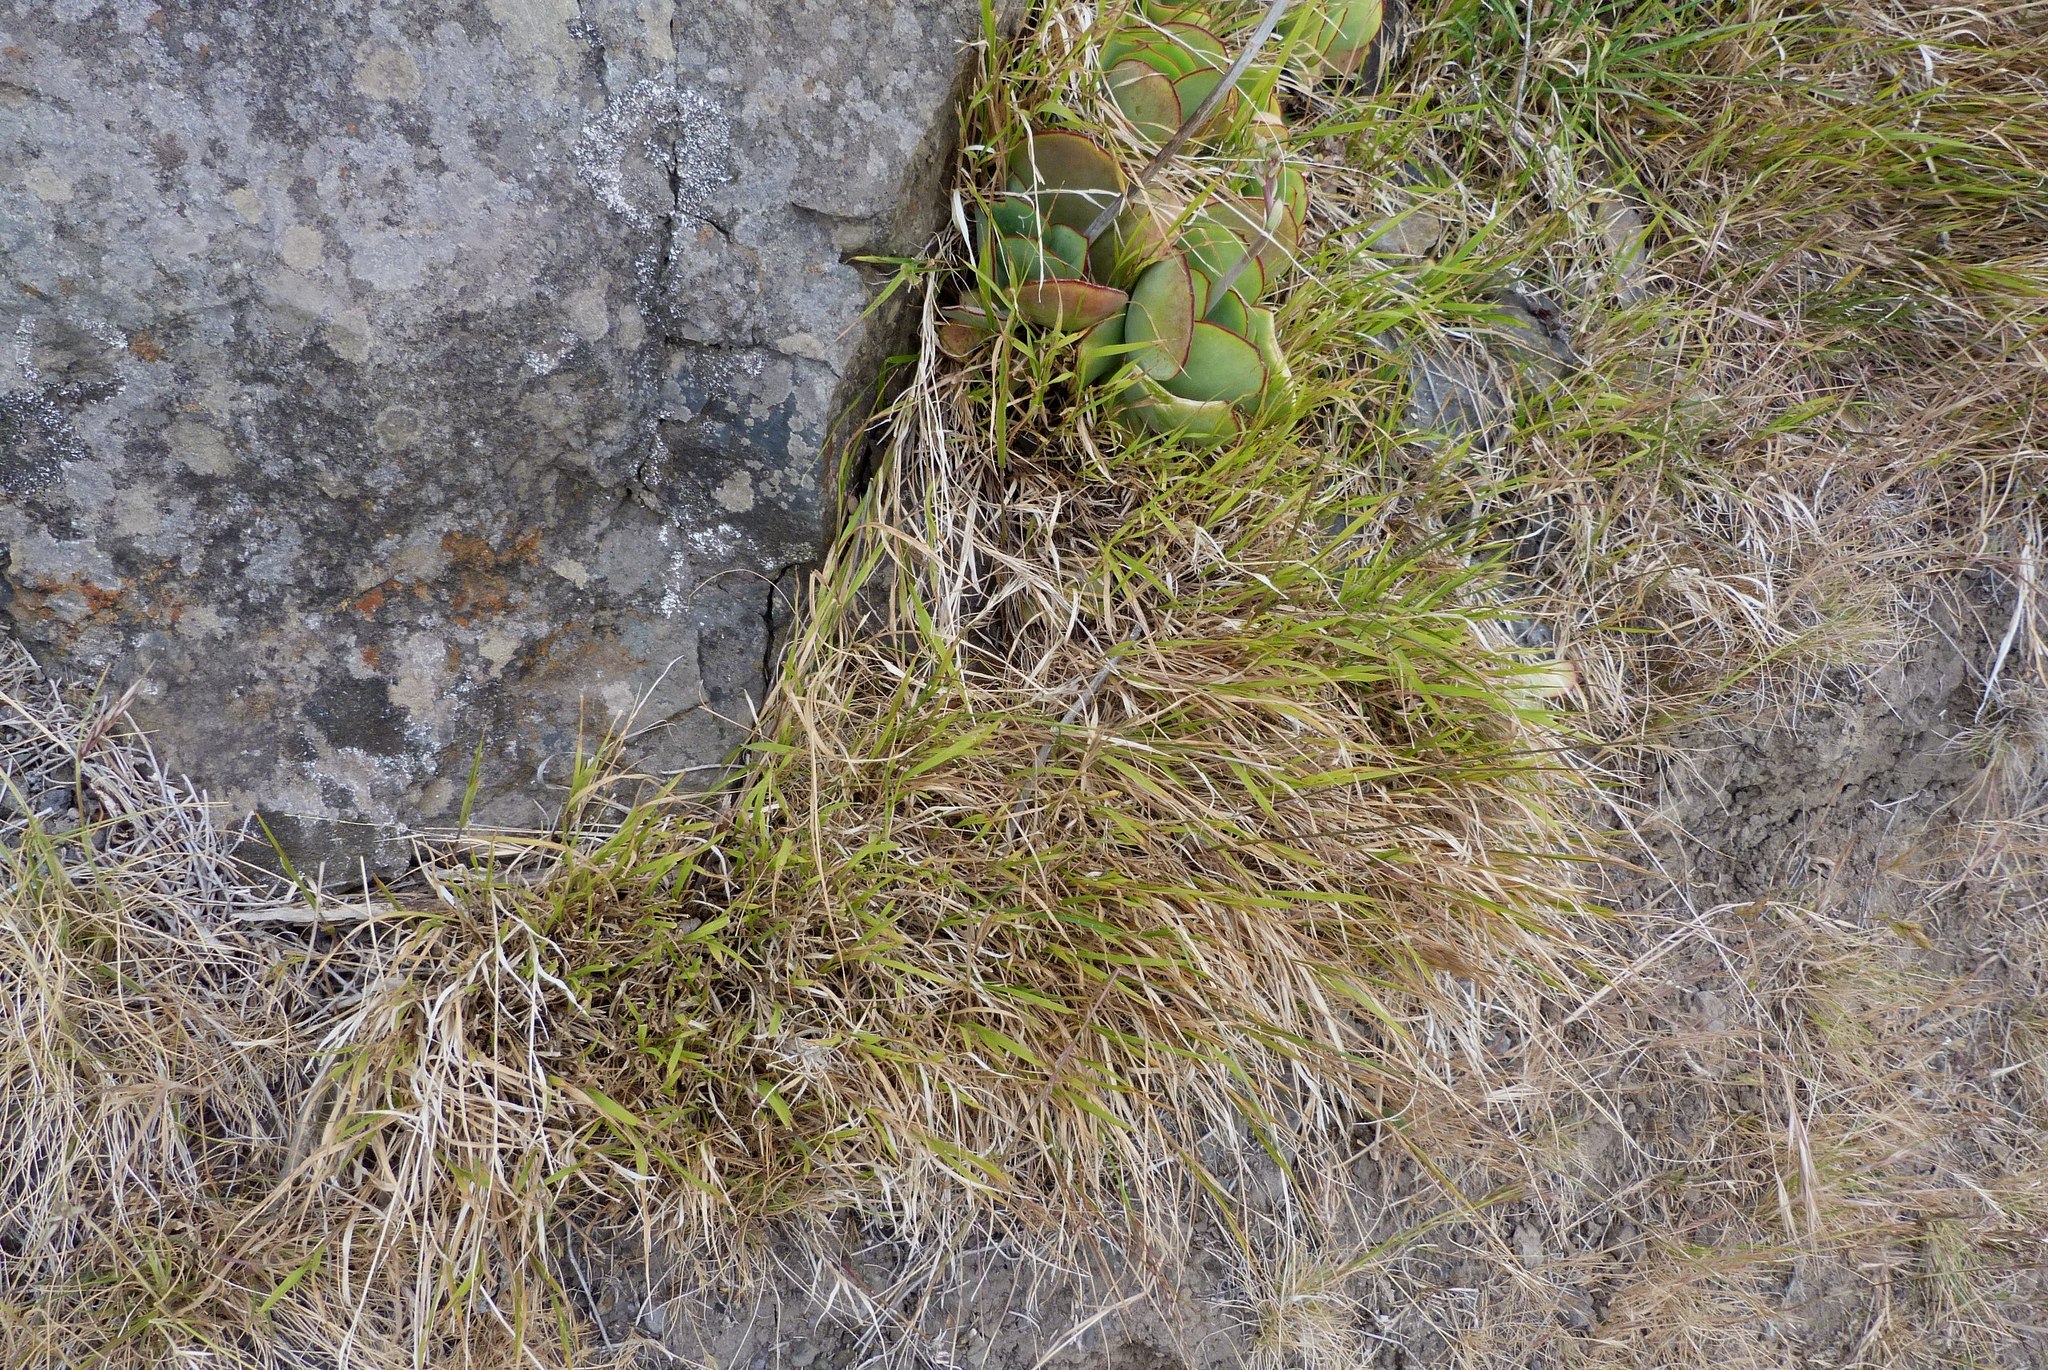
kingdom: Plantae
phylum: Tracheophyta
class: Liliopsida
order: Poales
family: Poaceae
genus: Microlaena
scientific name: Microlaena stipoides
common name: Meadow ricegrass
